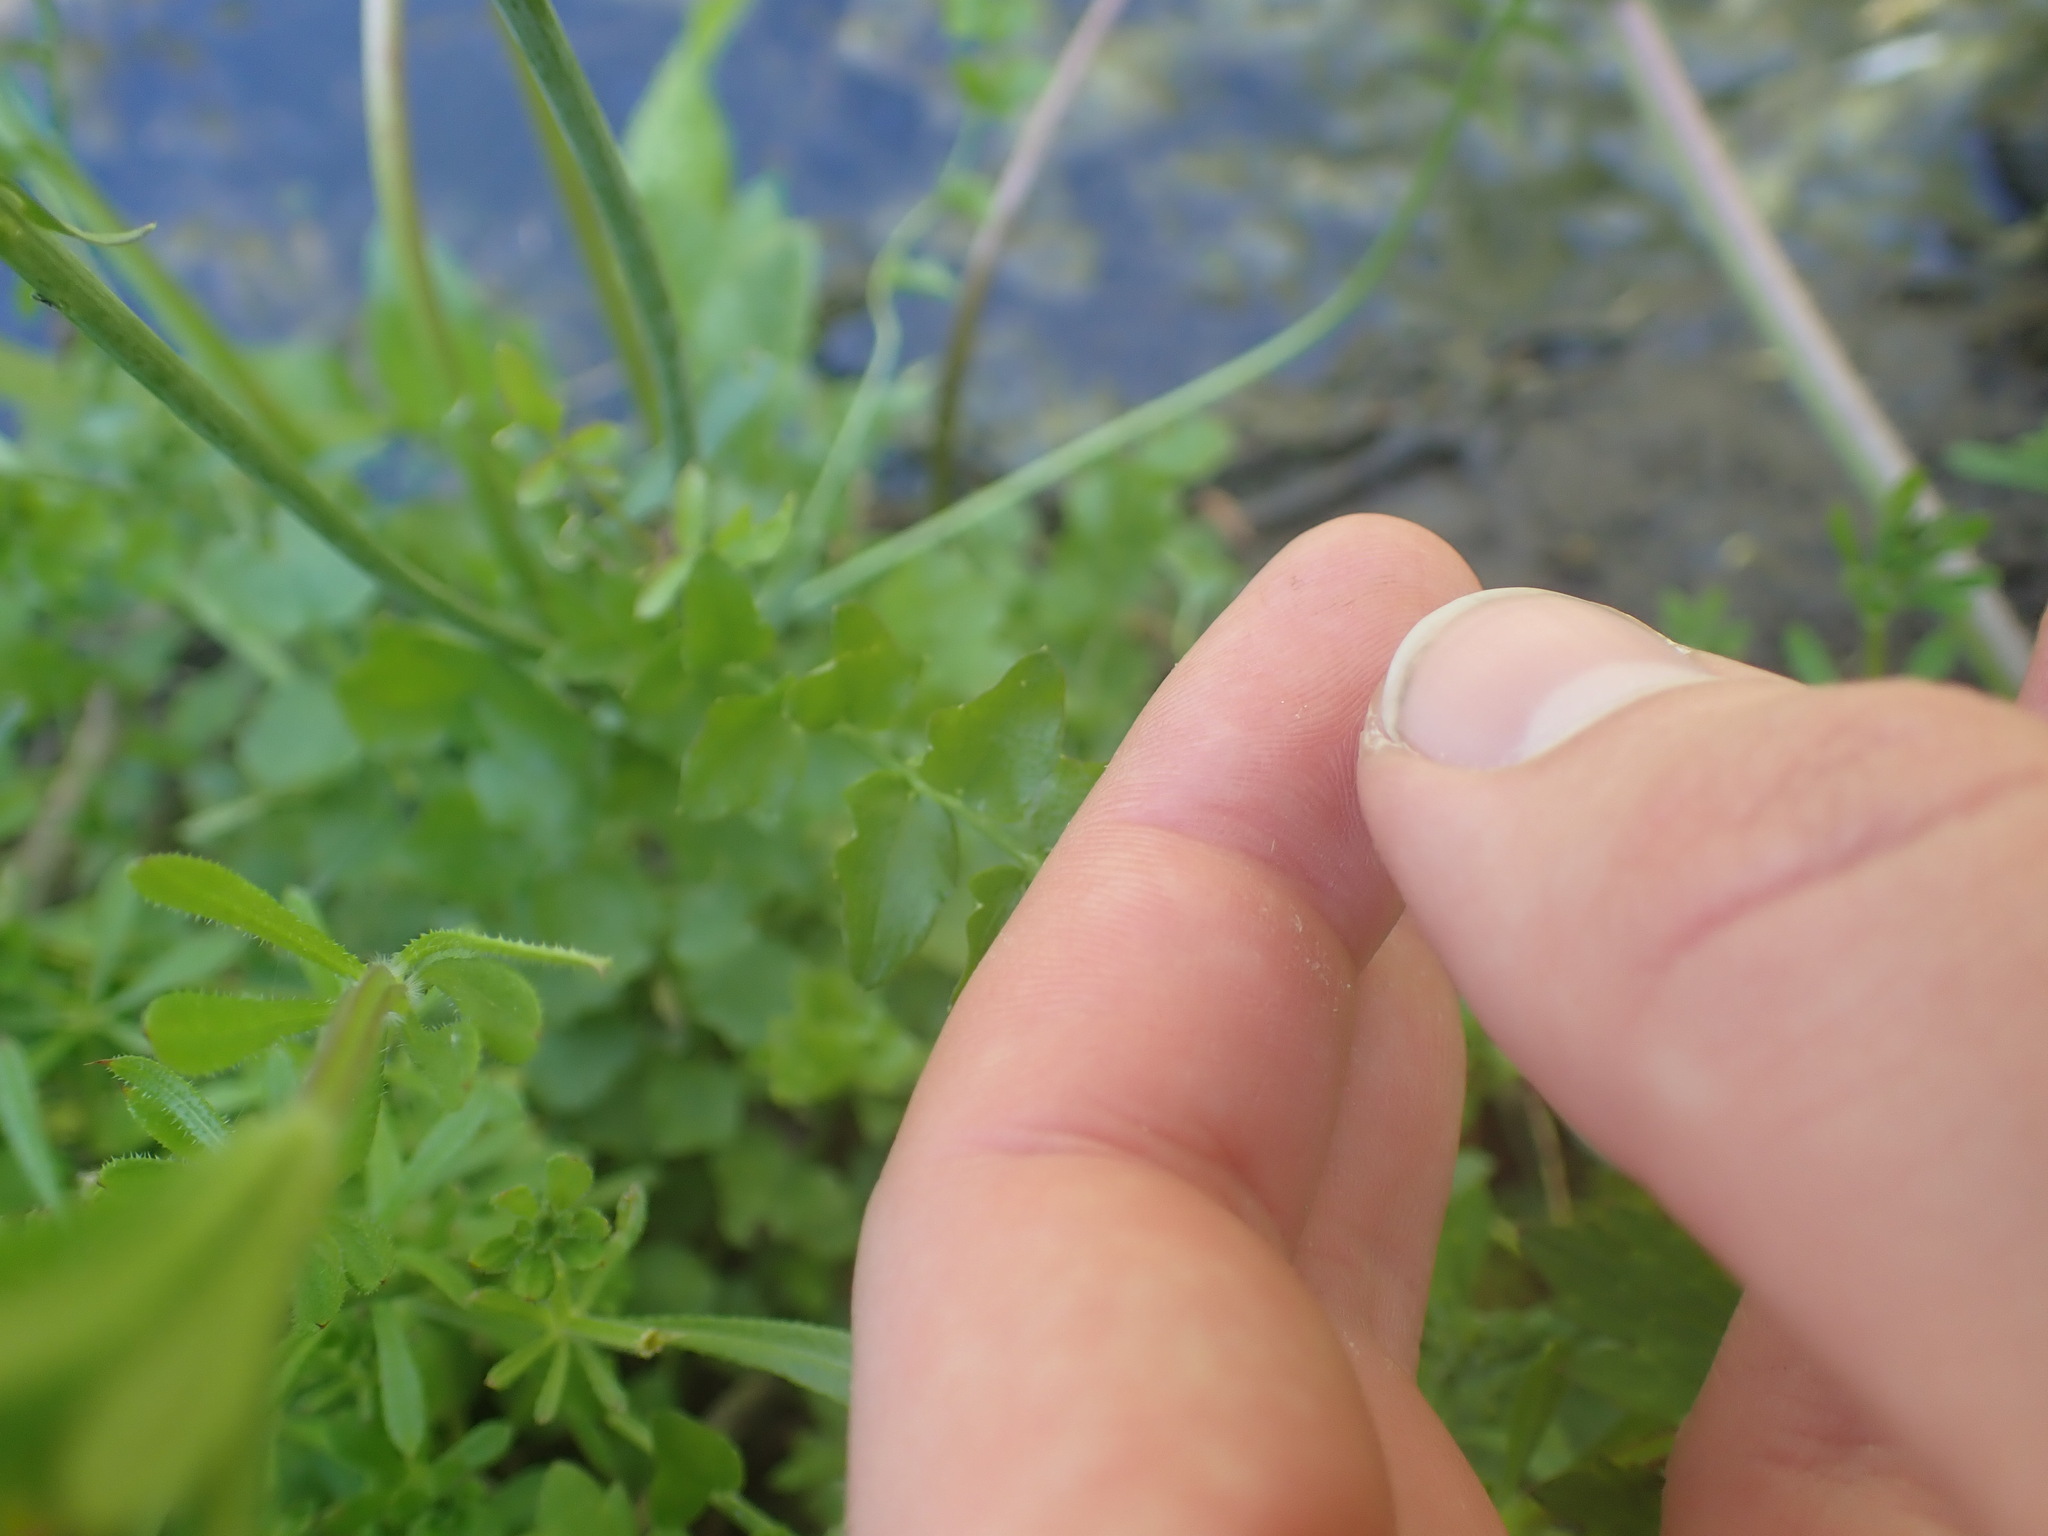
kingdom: Plantae
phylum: Tracheophyta
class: Magnoliopsida
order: Brassicales
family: Brassicaceae
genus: Cardamine
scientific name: Cardamine pratensis
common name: Cuckoo flower
